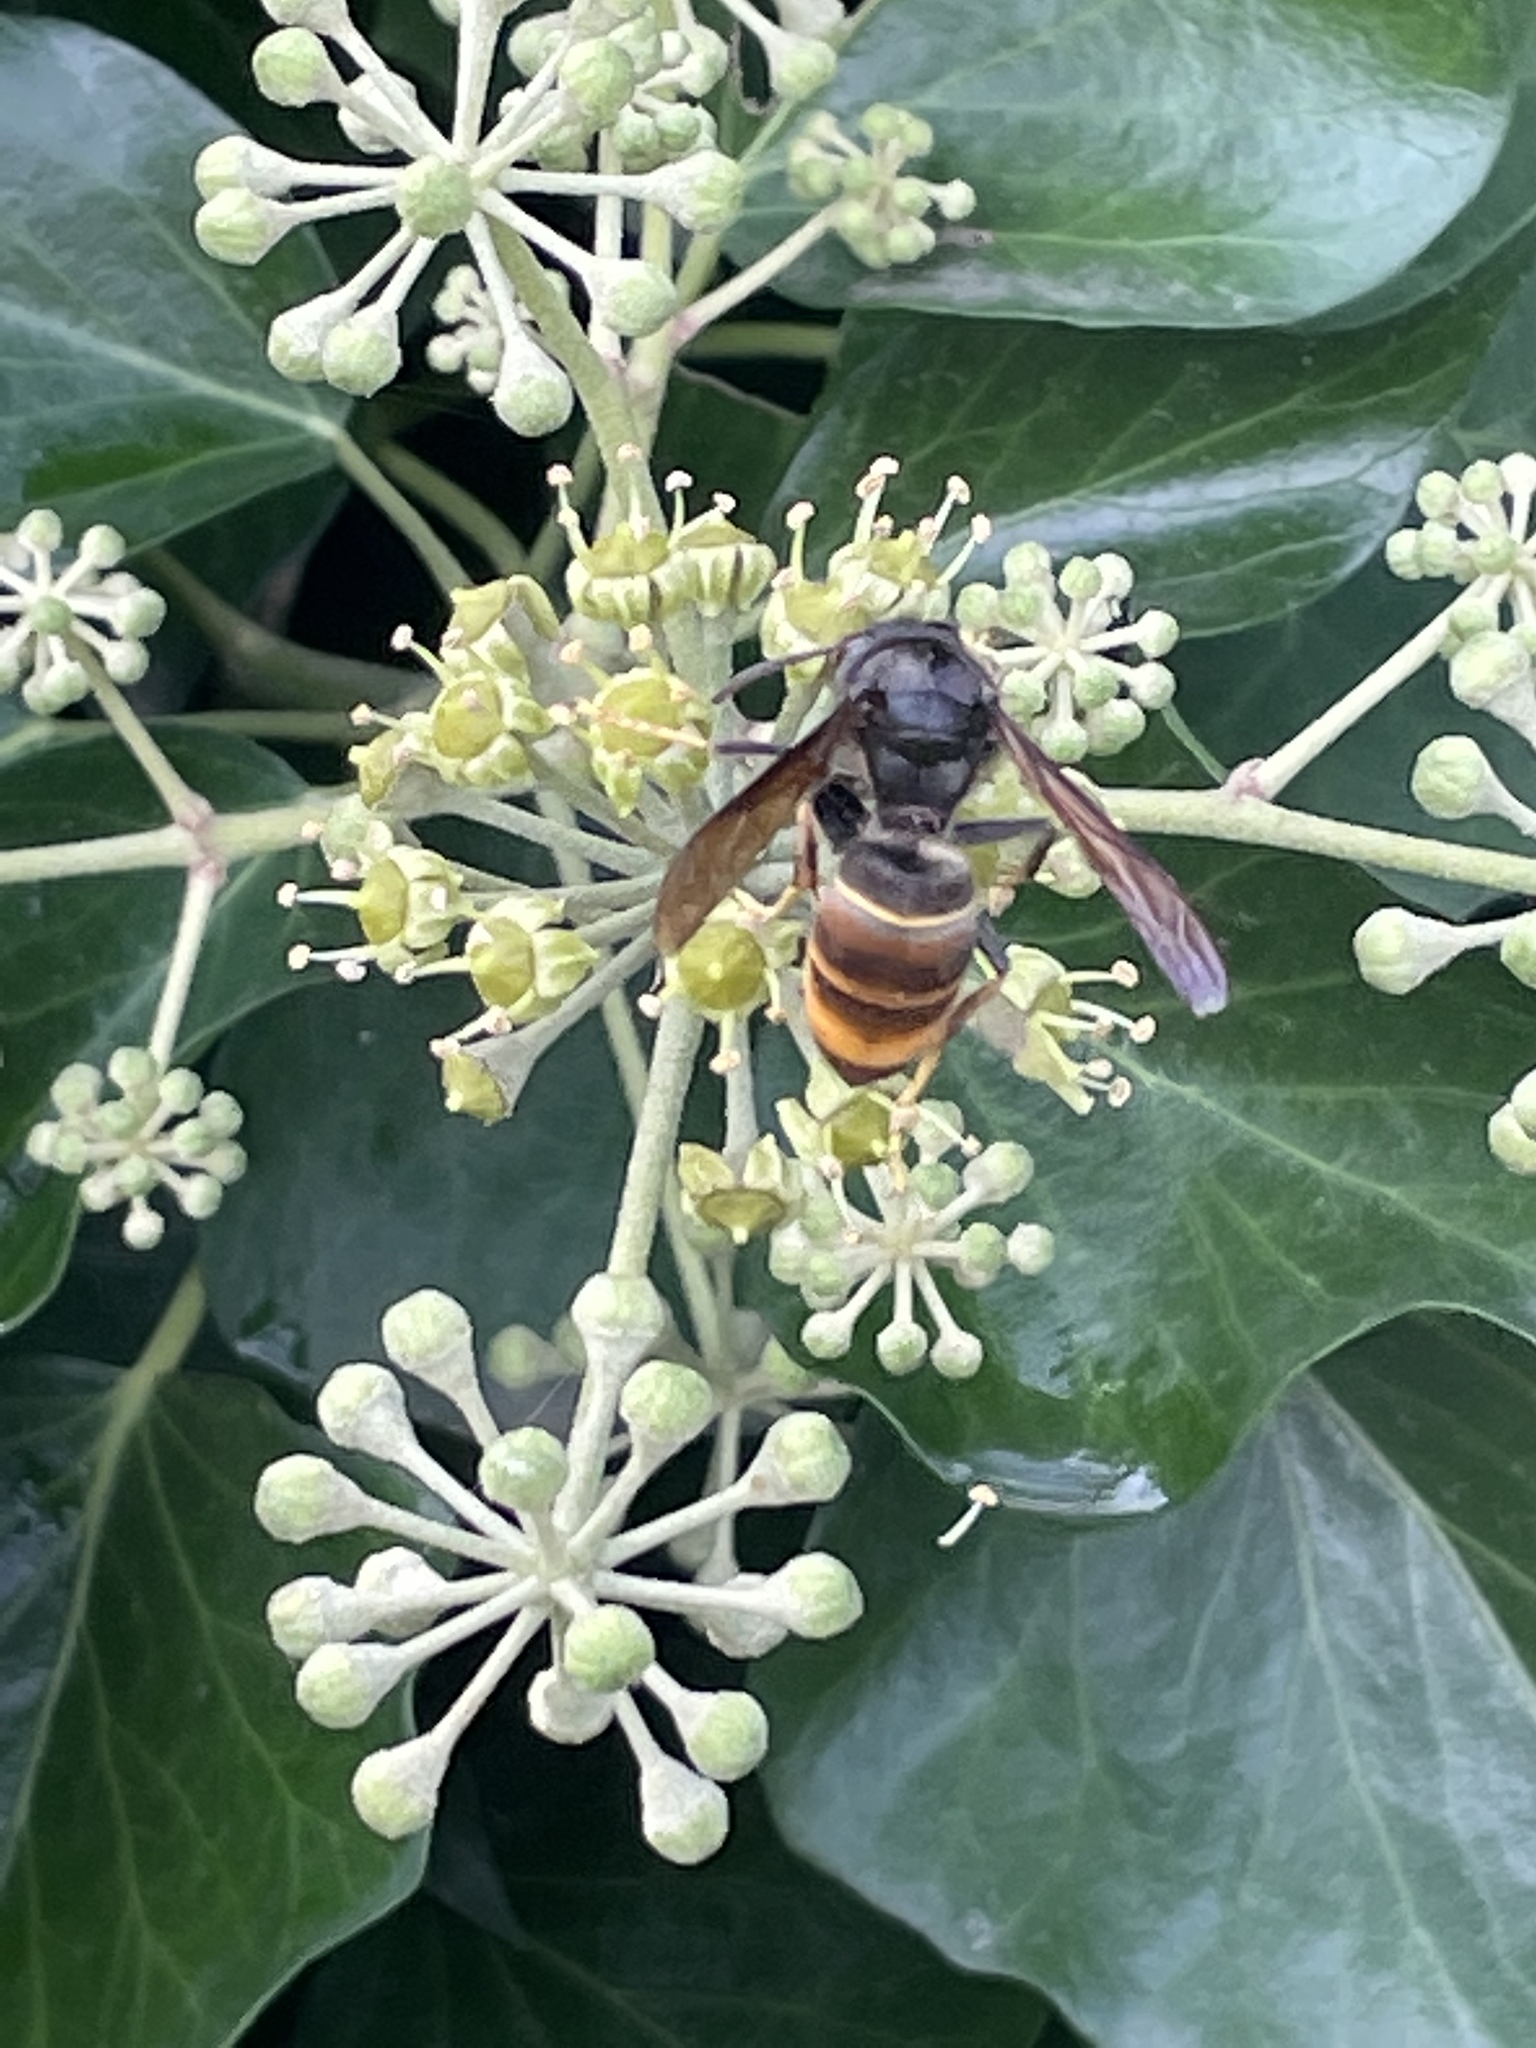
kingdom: Animalia
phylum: Arthropoda
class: Insecta
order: Hymenoptera
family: Vespidae
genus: Vespa
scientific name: Vespa velutina
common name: Asian hornet
